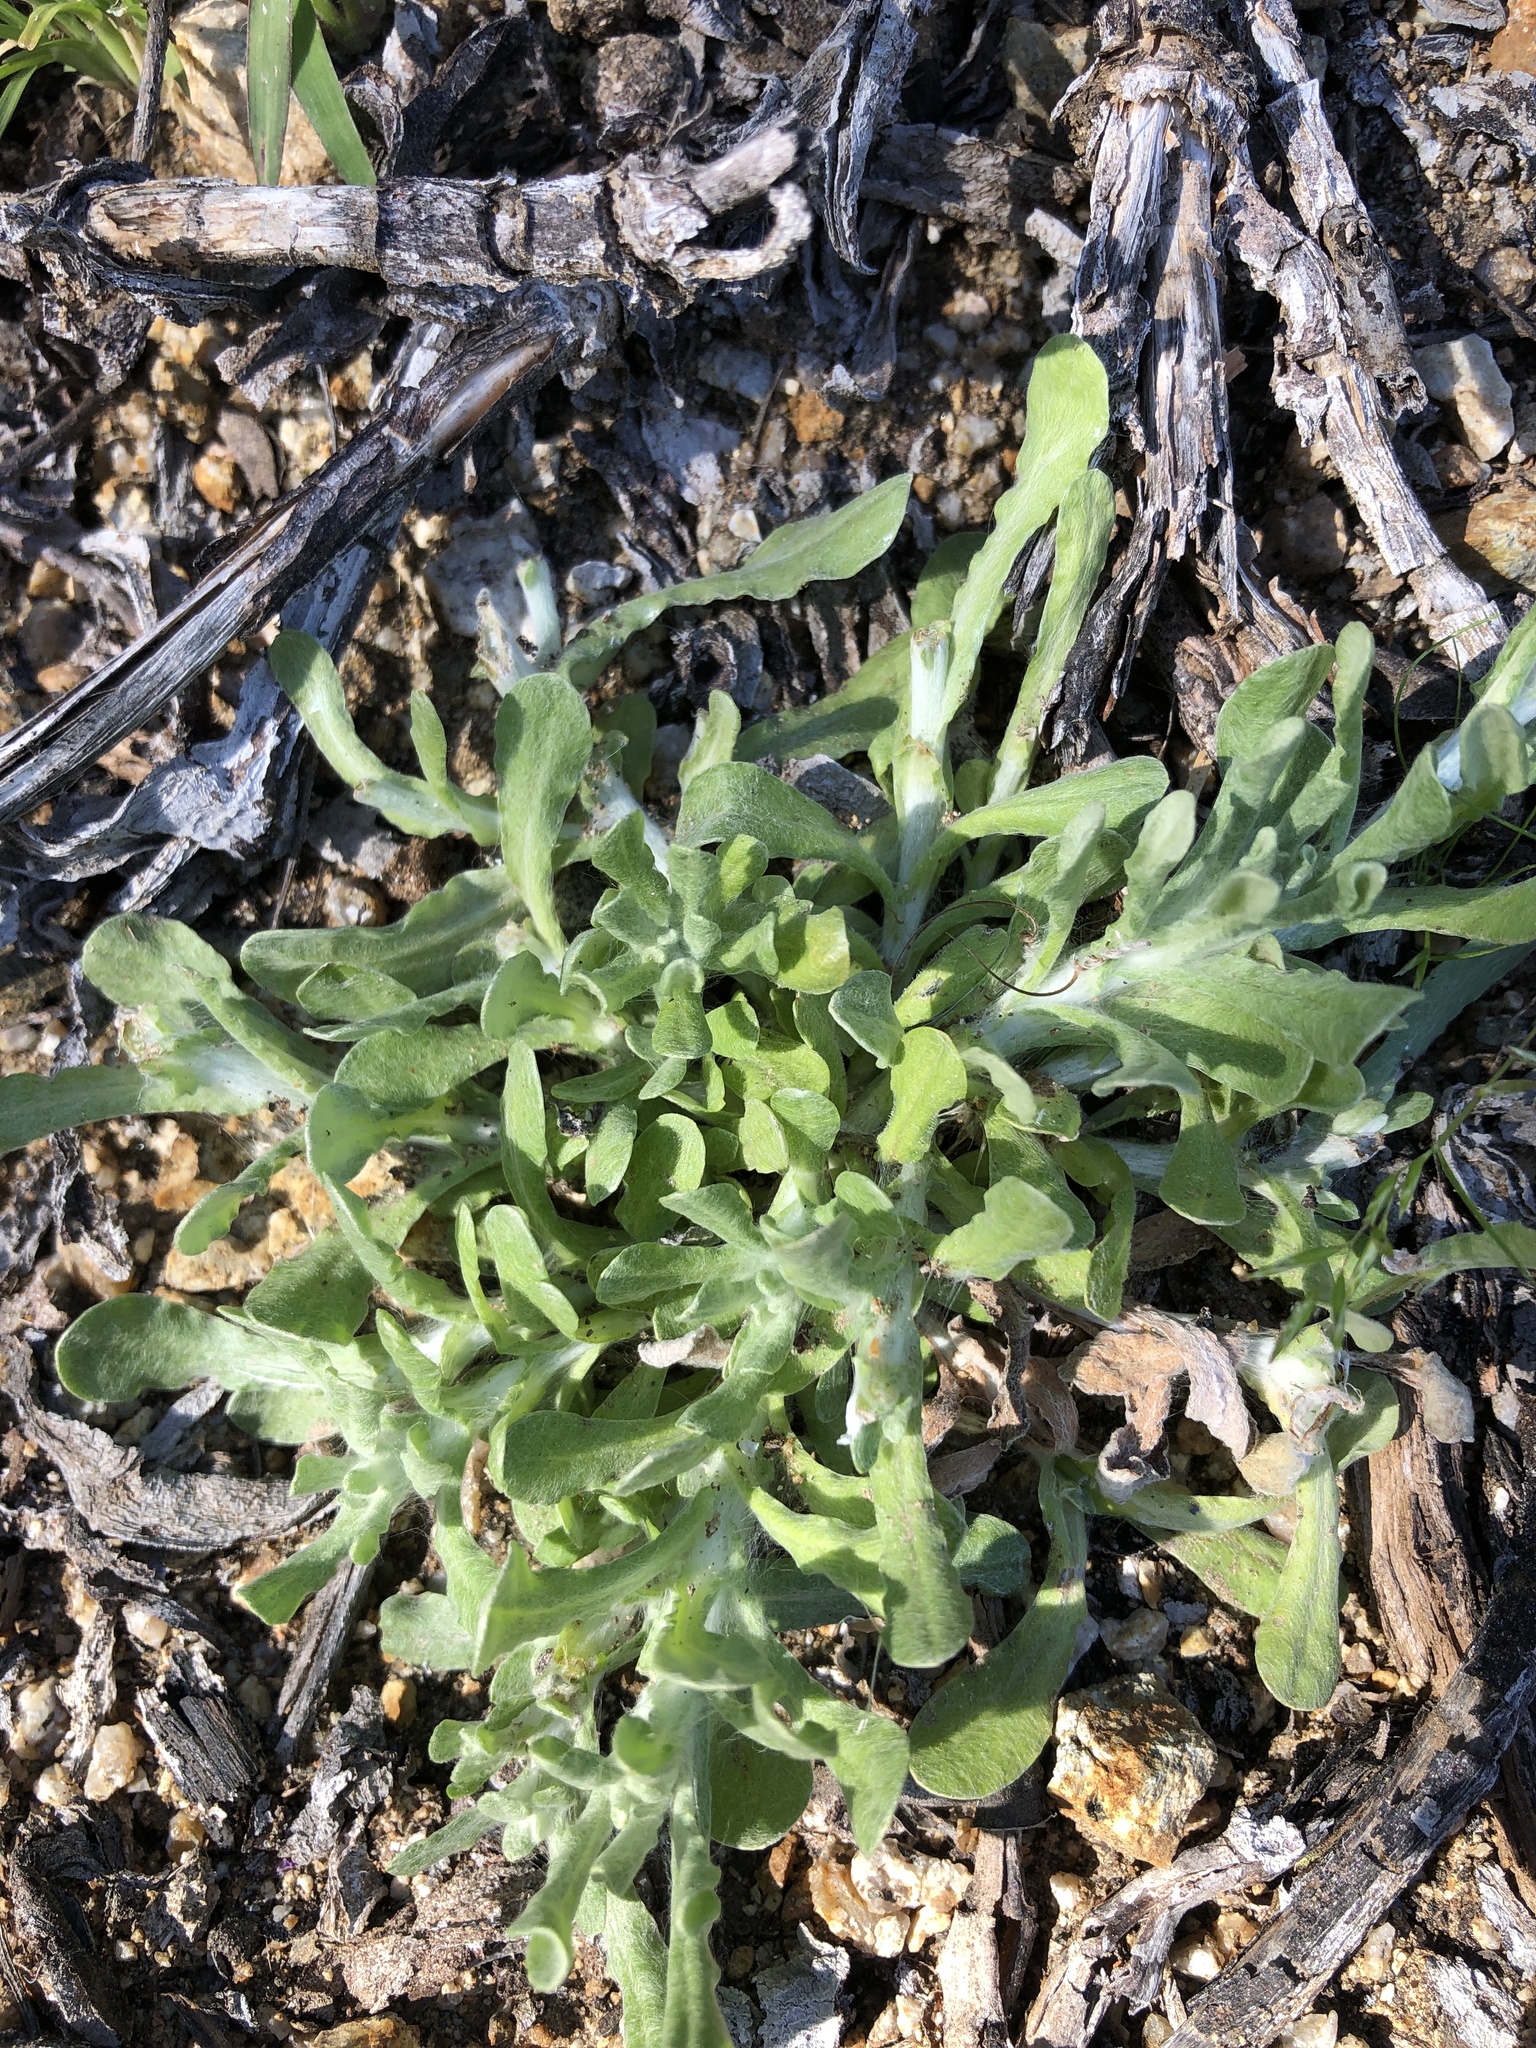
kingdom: Plantae
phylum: Tracheophyta
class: Magnoliopsida
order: Asterales
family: Asteraceae
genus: Helichrysum
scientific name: Helichrysum luteoalbum
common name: Daisy
